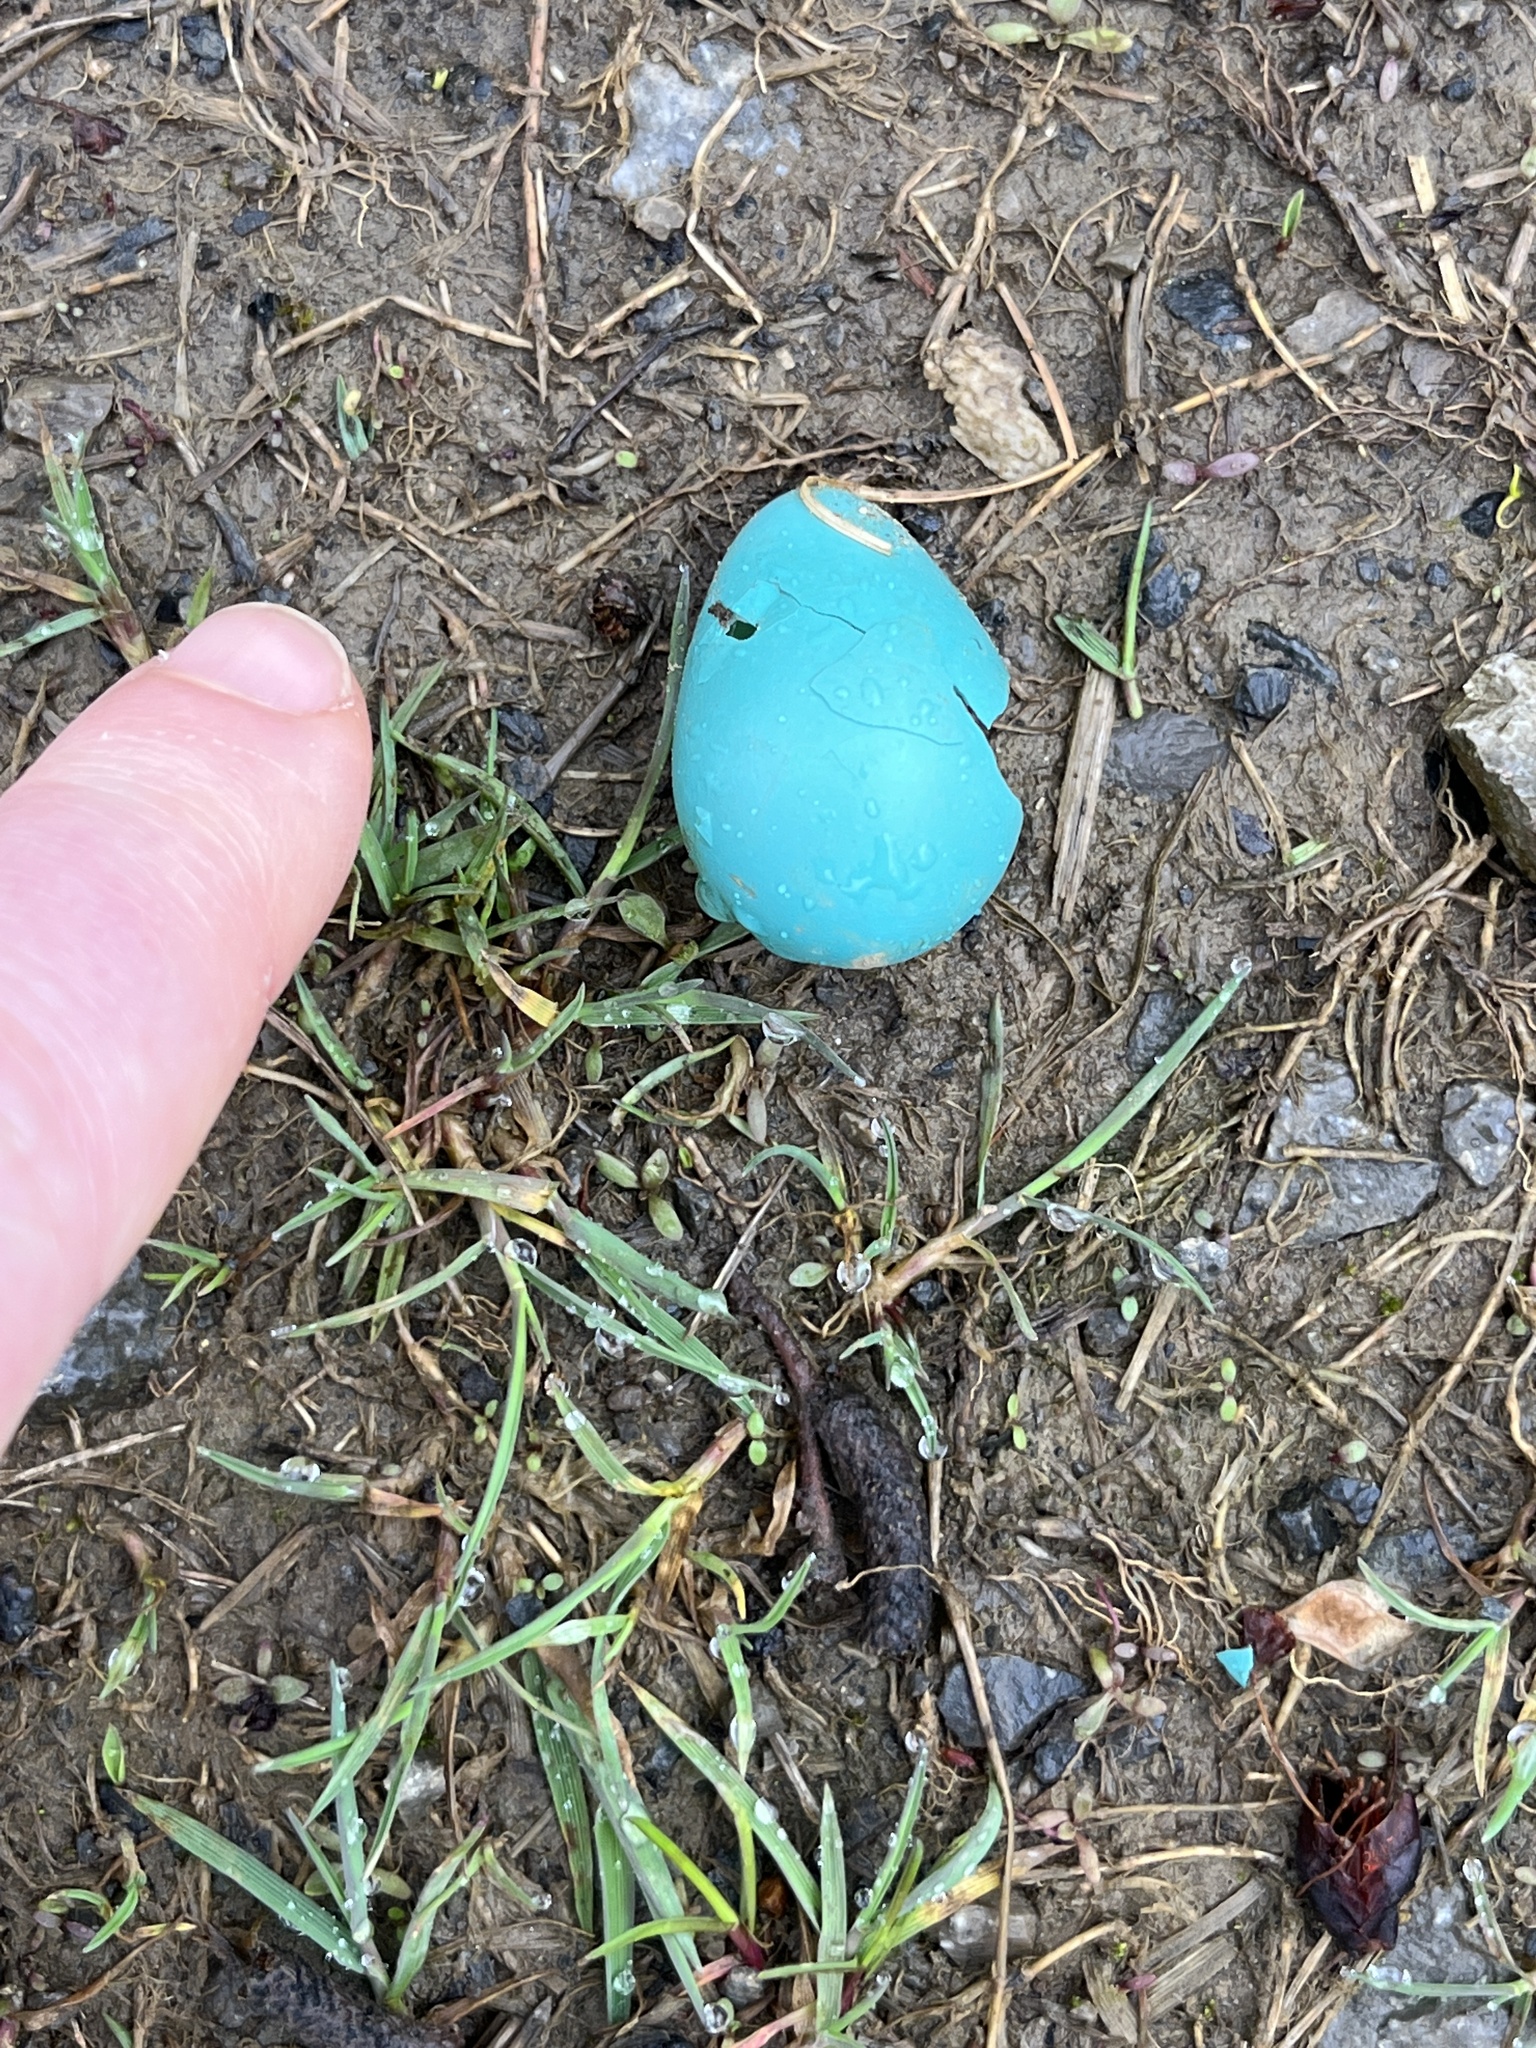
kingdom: Animalia
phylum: Chordata
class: Aves
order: Passeriformes
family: Turdidae
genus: Turdus
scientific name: Turdus migratorius
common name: American robin
